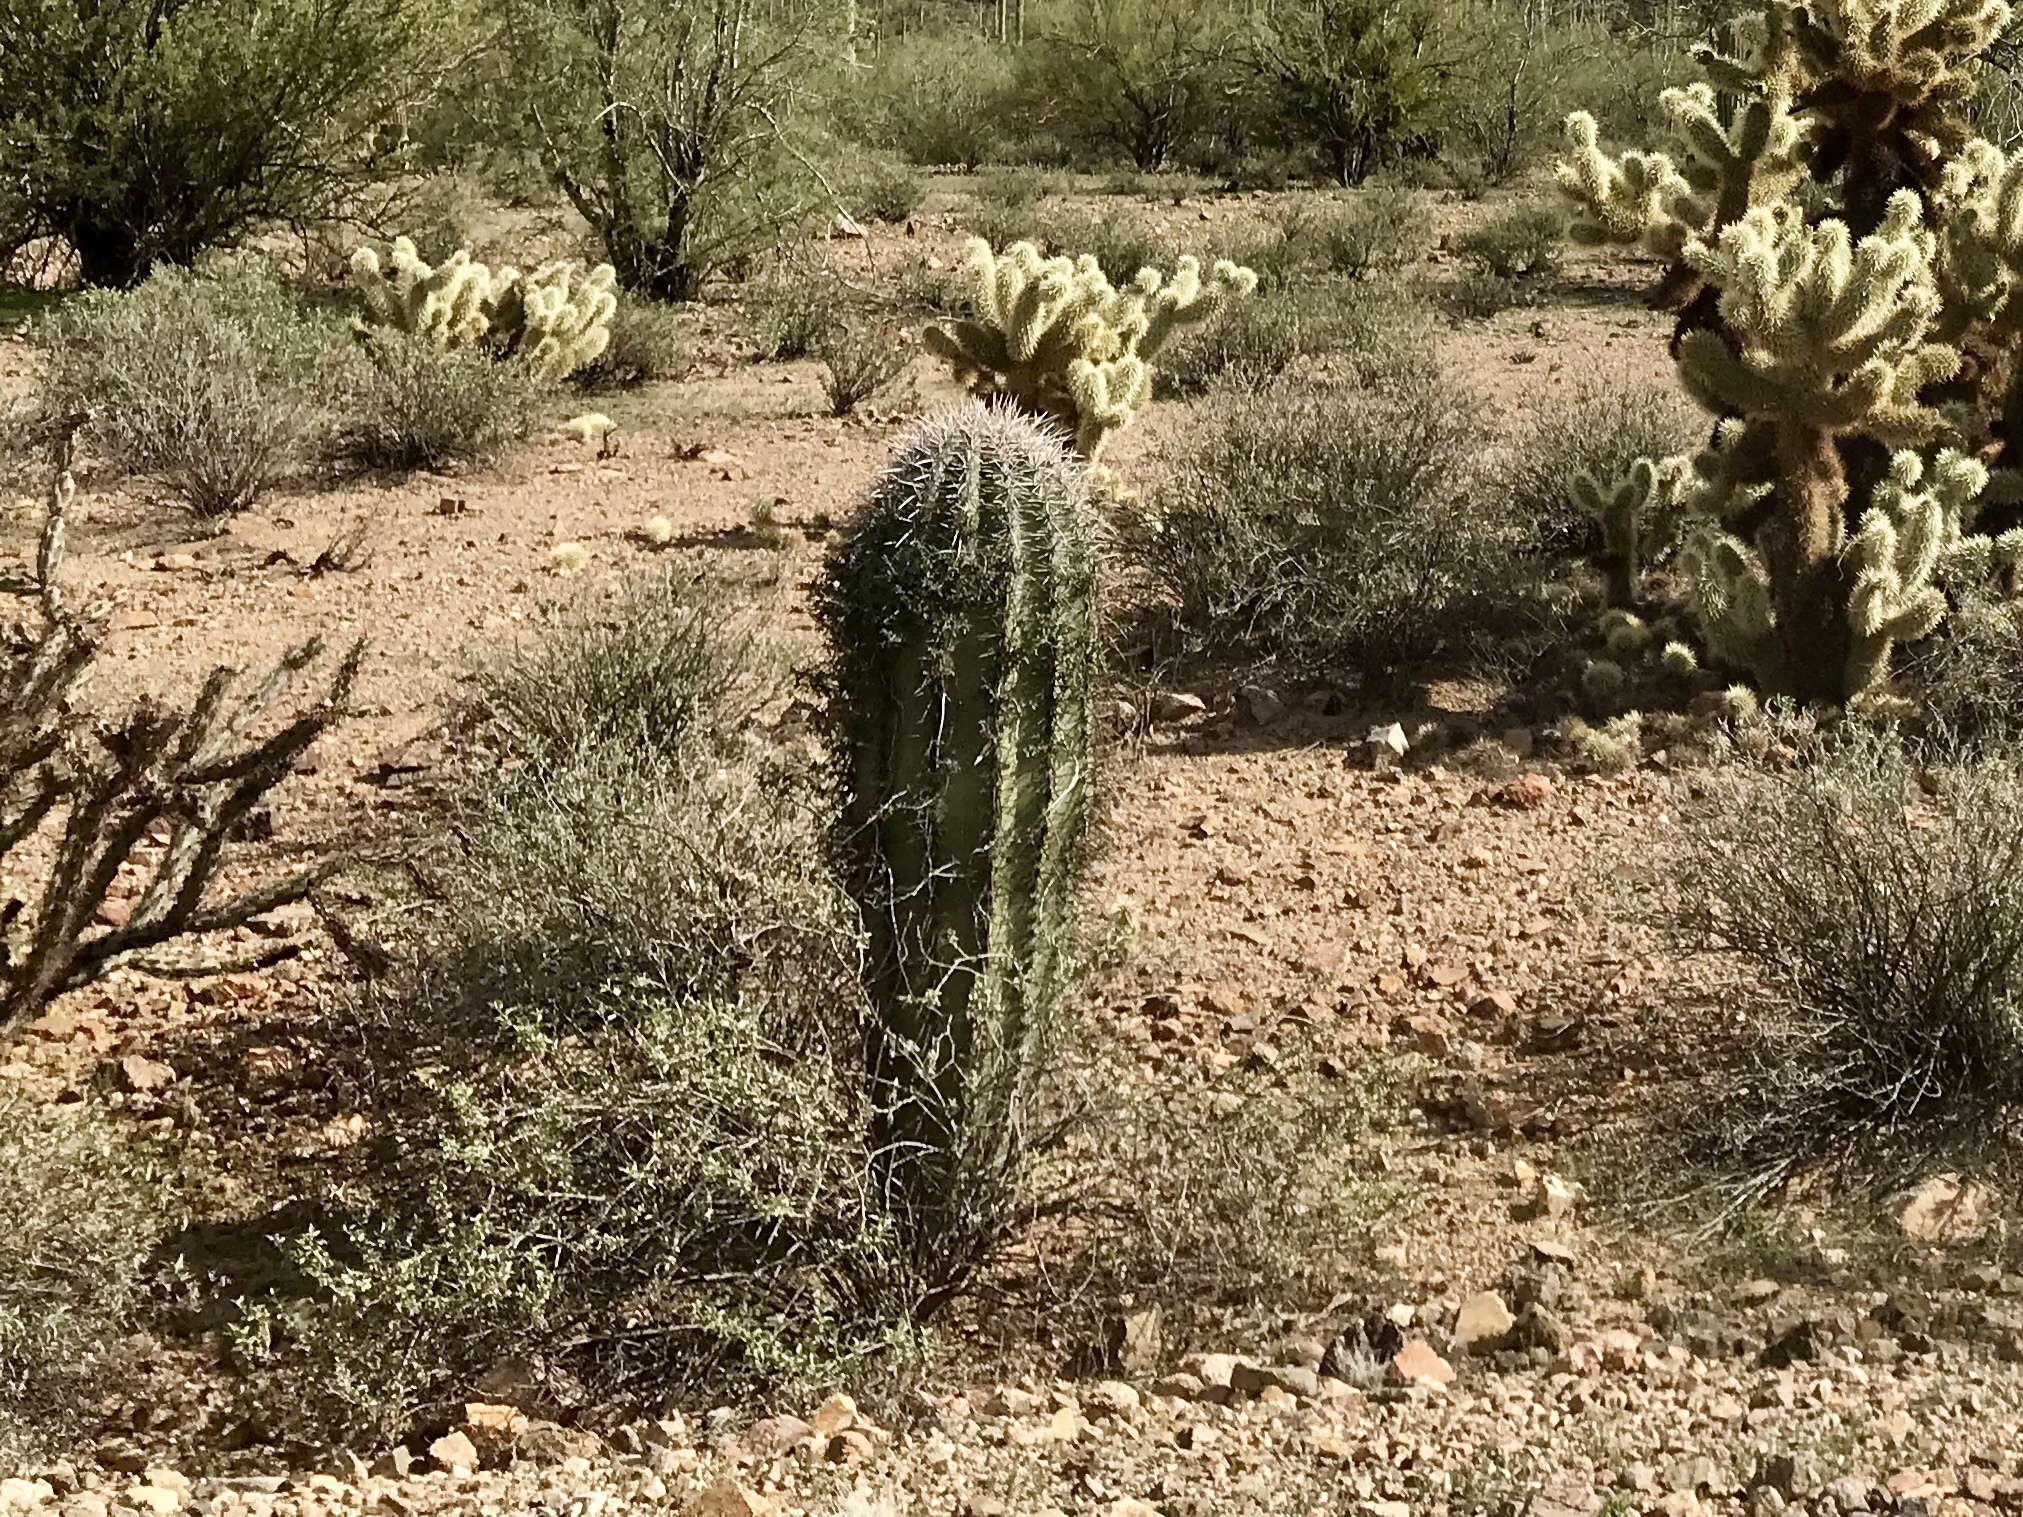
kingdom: Plantae
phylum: Tracheophyta
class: Magnoliopsida
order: Caryophyllales
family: Cactaceae
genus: Carnegiea
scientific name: Carnegiea gigantea
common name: Saguaro
